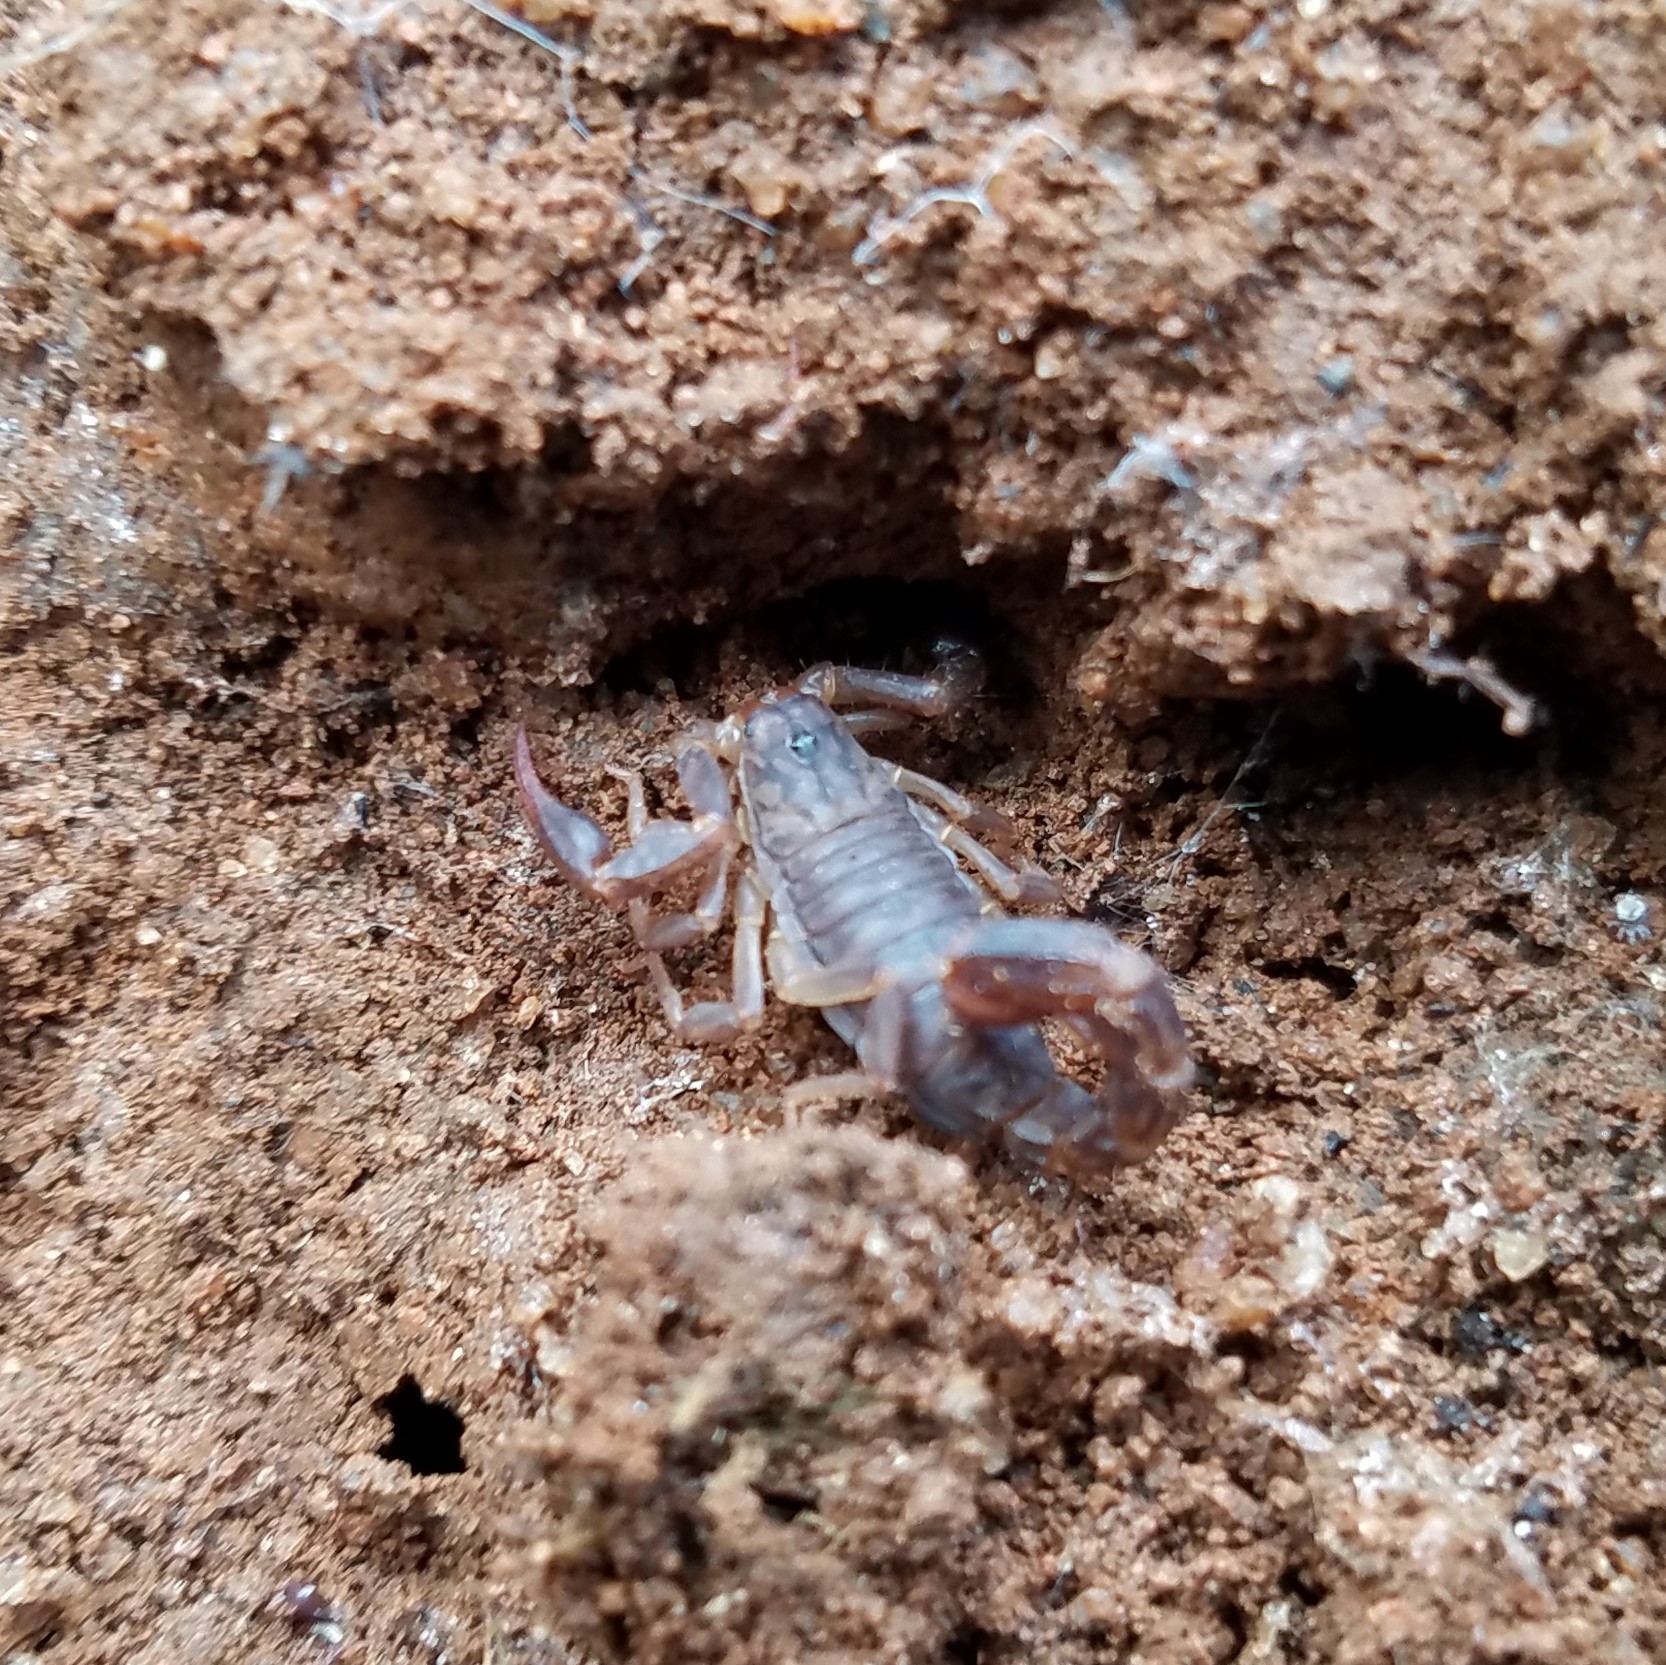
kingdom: Animalia
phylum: Arthropoda
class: Arachnida
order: Scorpiones
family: Vaejovidae
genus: Vaejovis
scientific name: Vaejovis carolinianus
